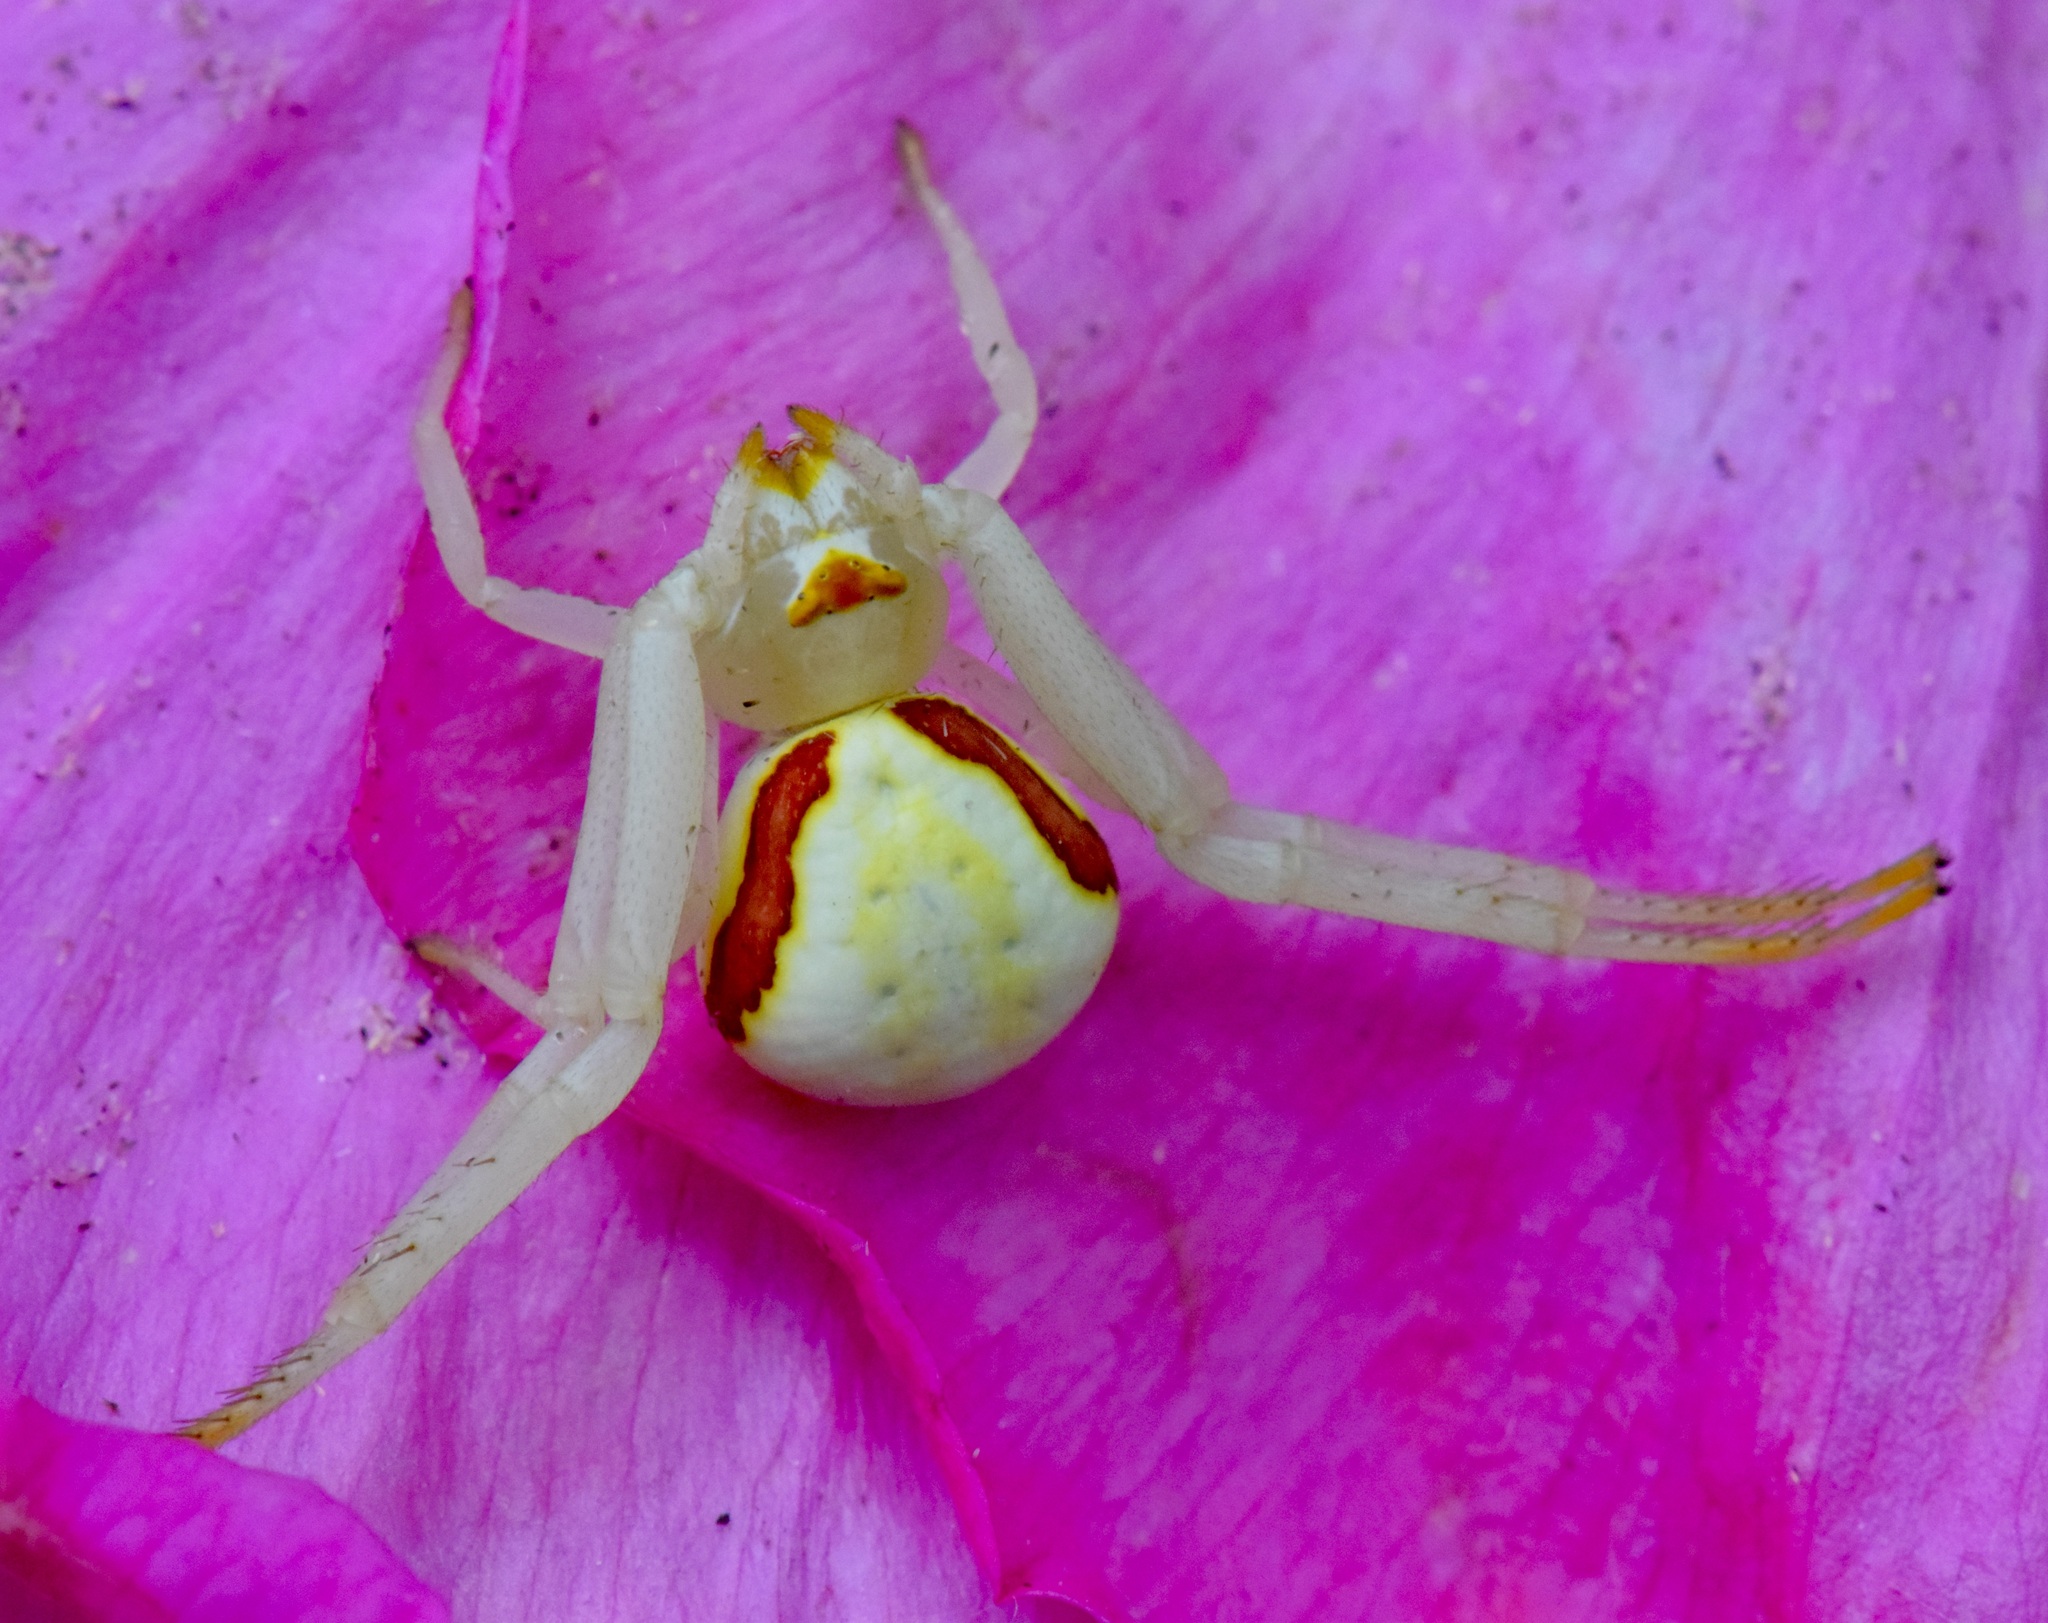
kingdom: Animalia
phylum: Arthropoda
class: Arachnida
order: Araneae
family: Thomisidae
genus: Misumena
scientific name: Misumena vatia
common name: Goldenrod crab spider
